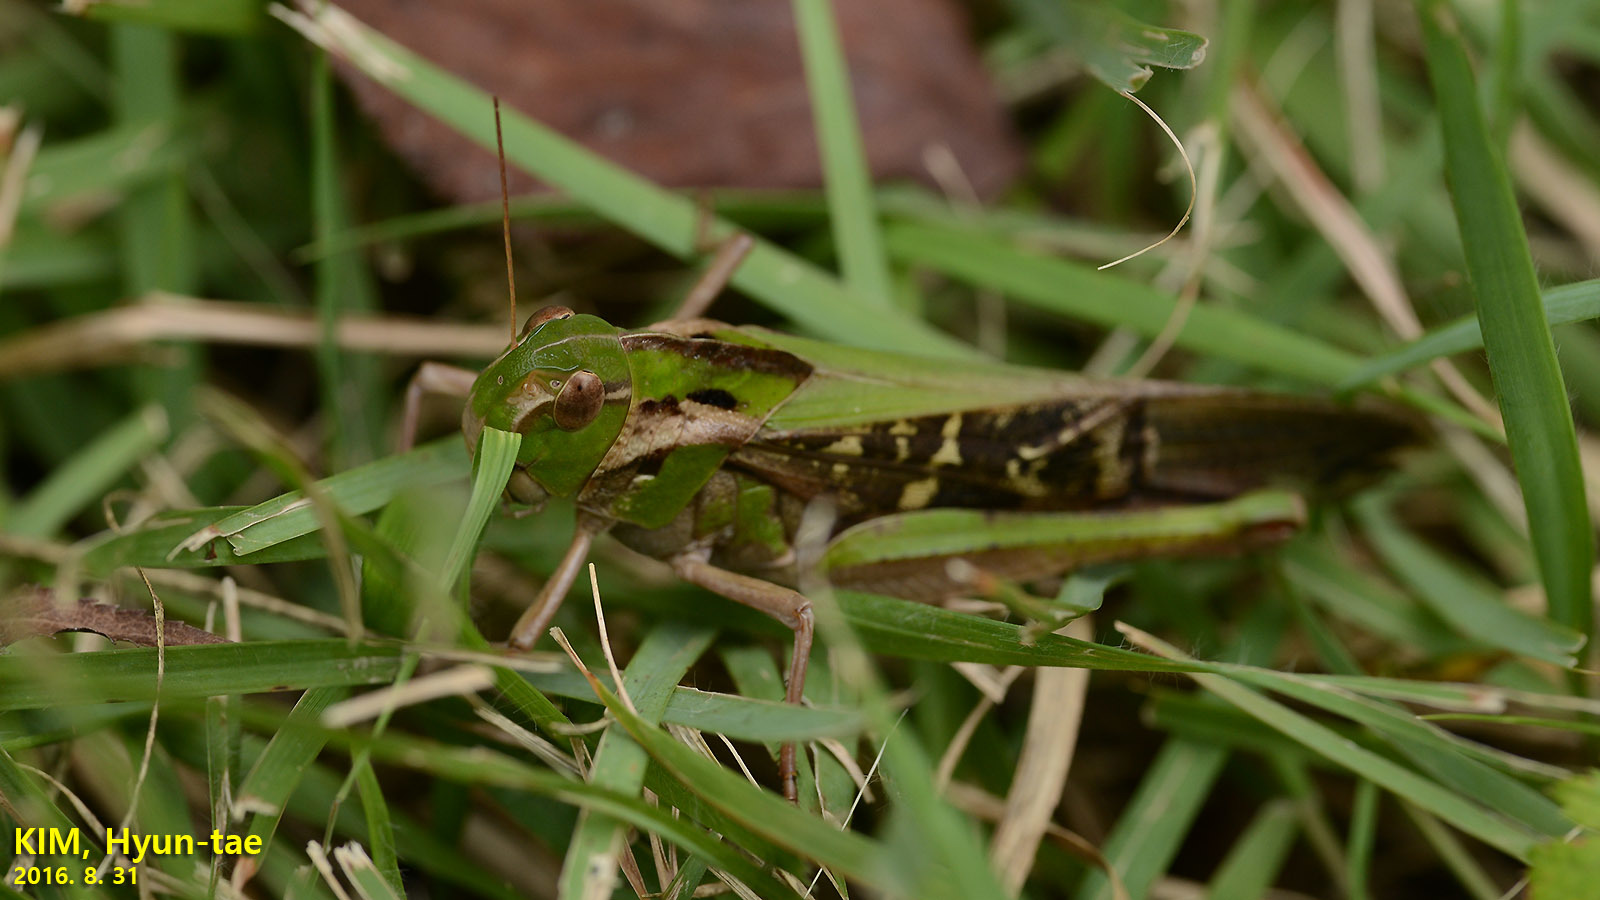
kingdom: Animalia
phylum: Arthropoda
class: Insecta
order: Orthoptera
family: Acrididae
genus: Gastrimargus
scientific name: Gastrimargus marmoratus
